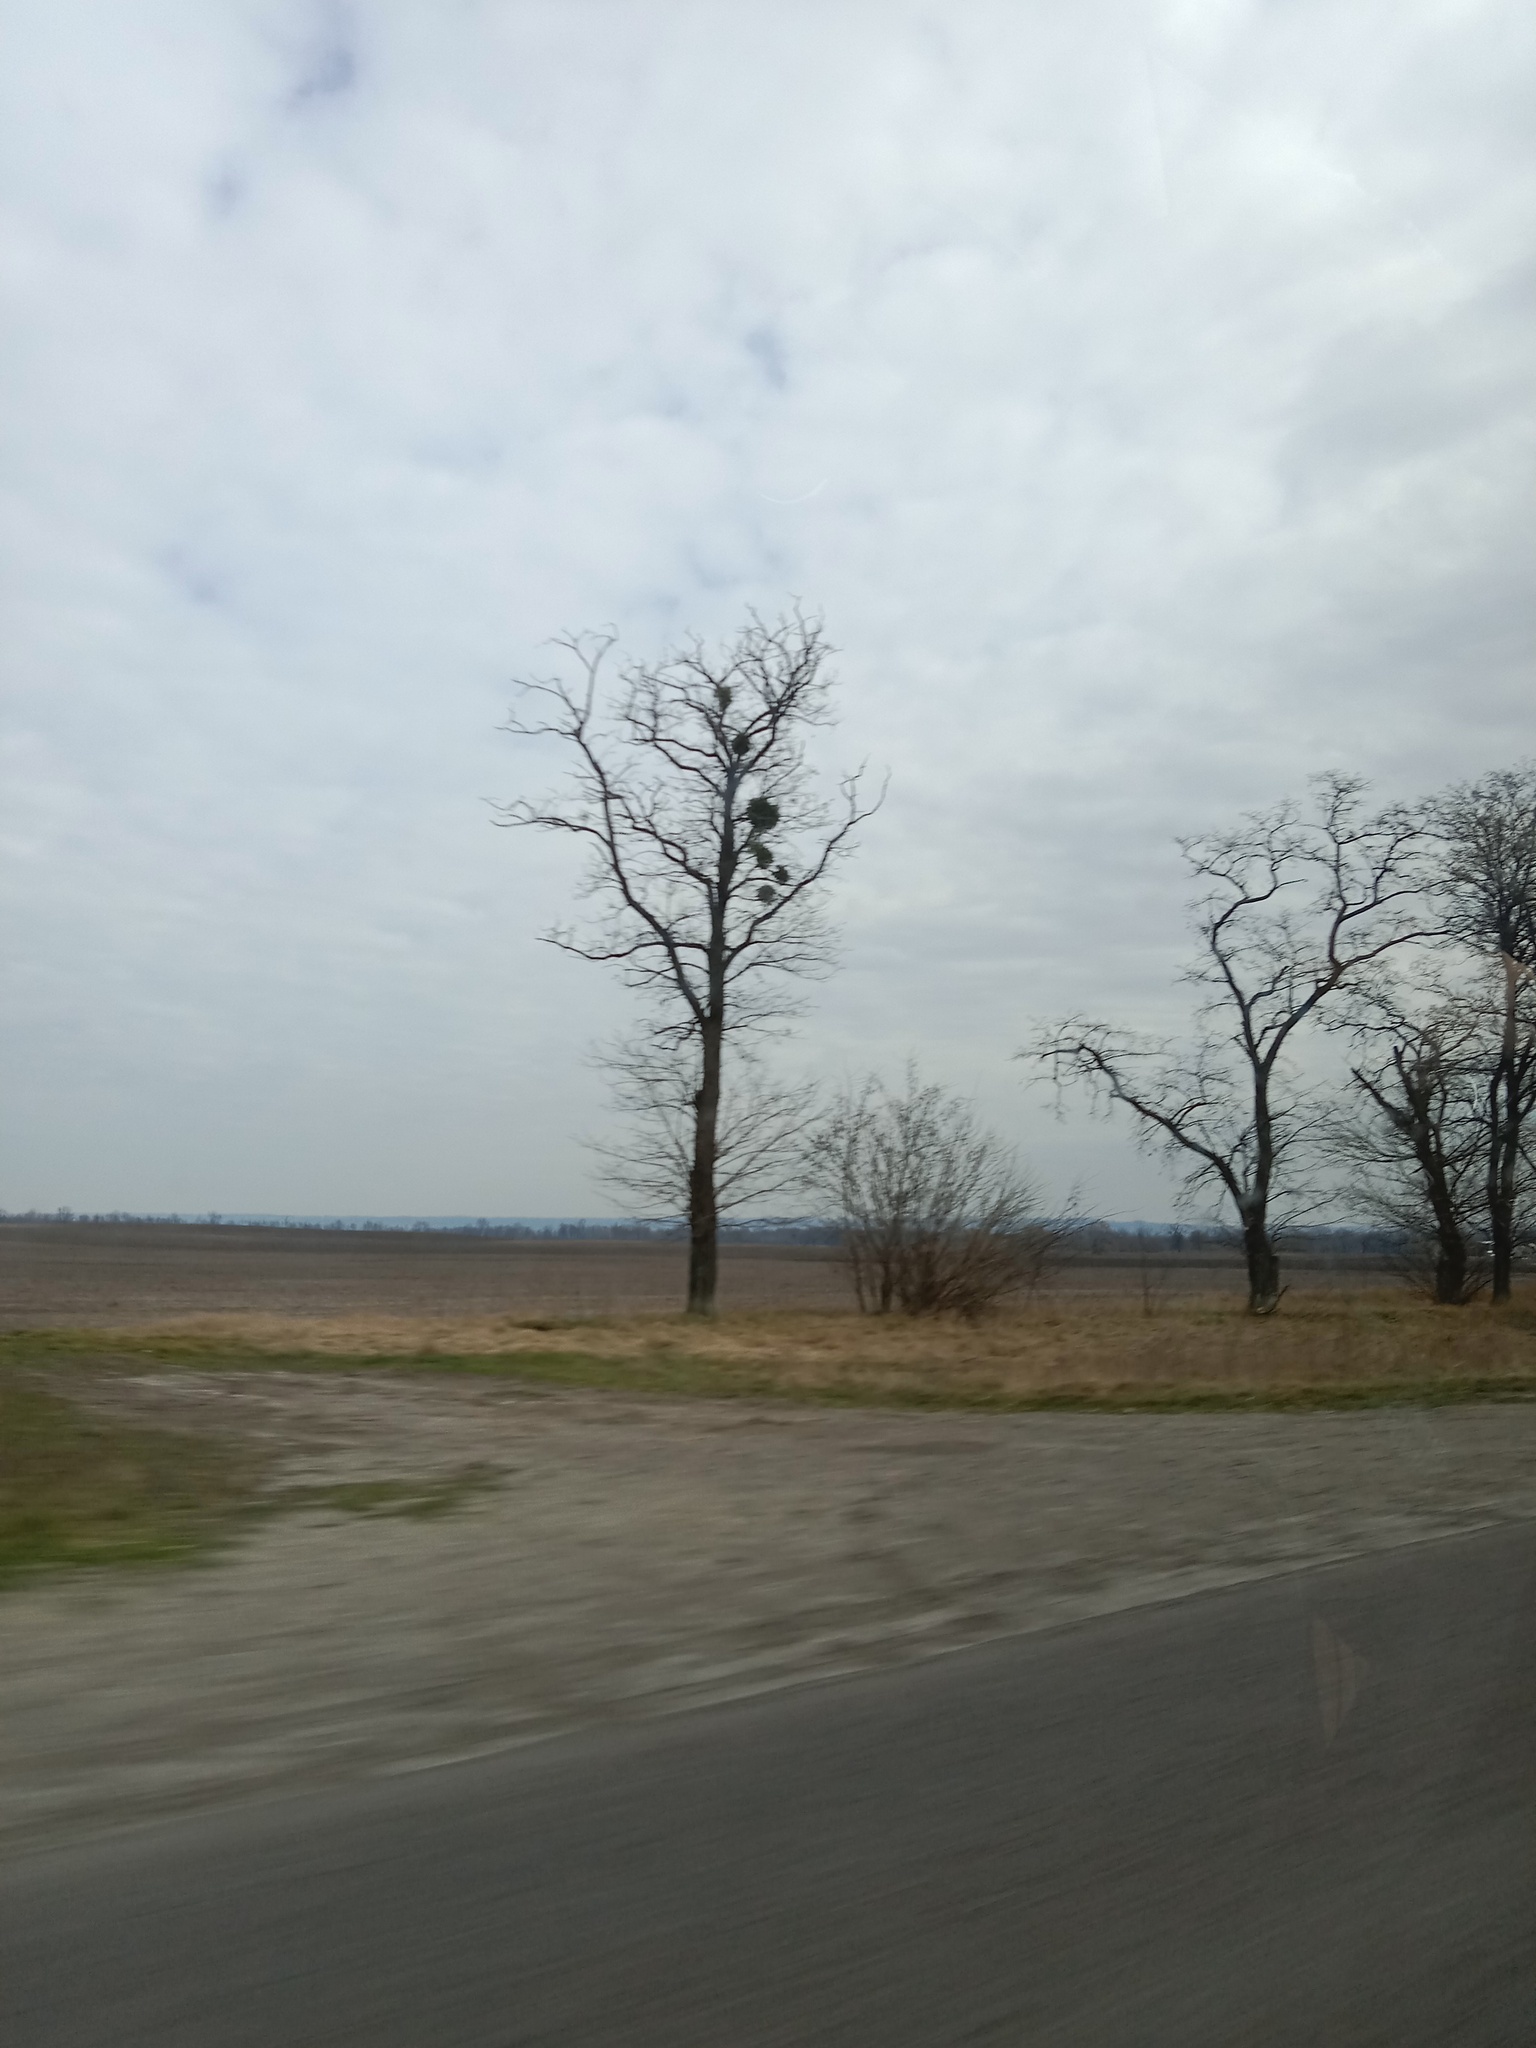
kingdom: Plantae
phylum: Tracheophyta
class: Magnoliopsida
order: Santalales
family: Viscaceae
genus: Viscum
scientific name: Viscum album
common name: Mistletoe
